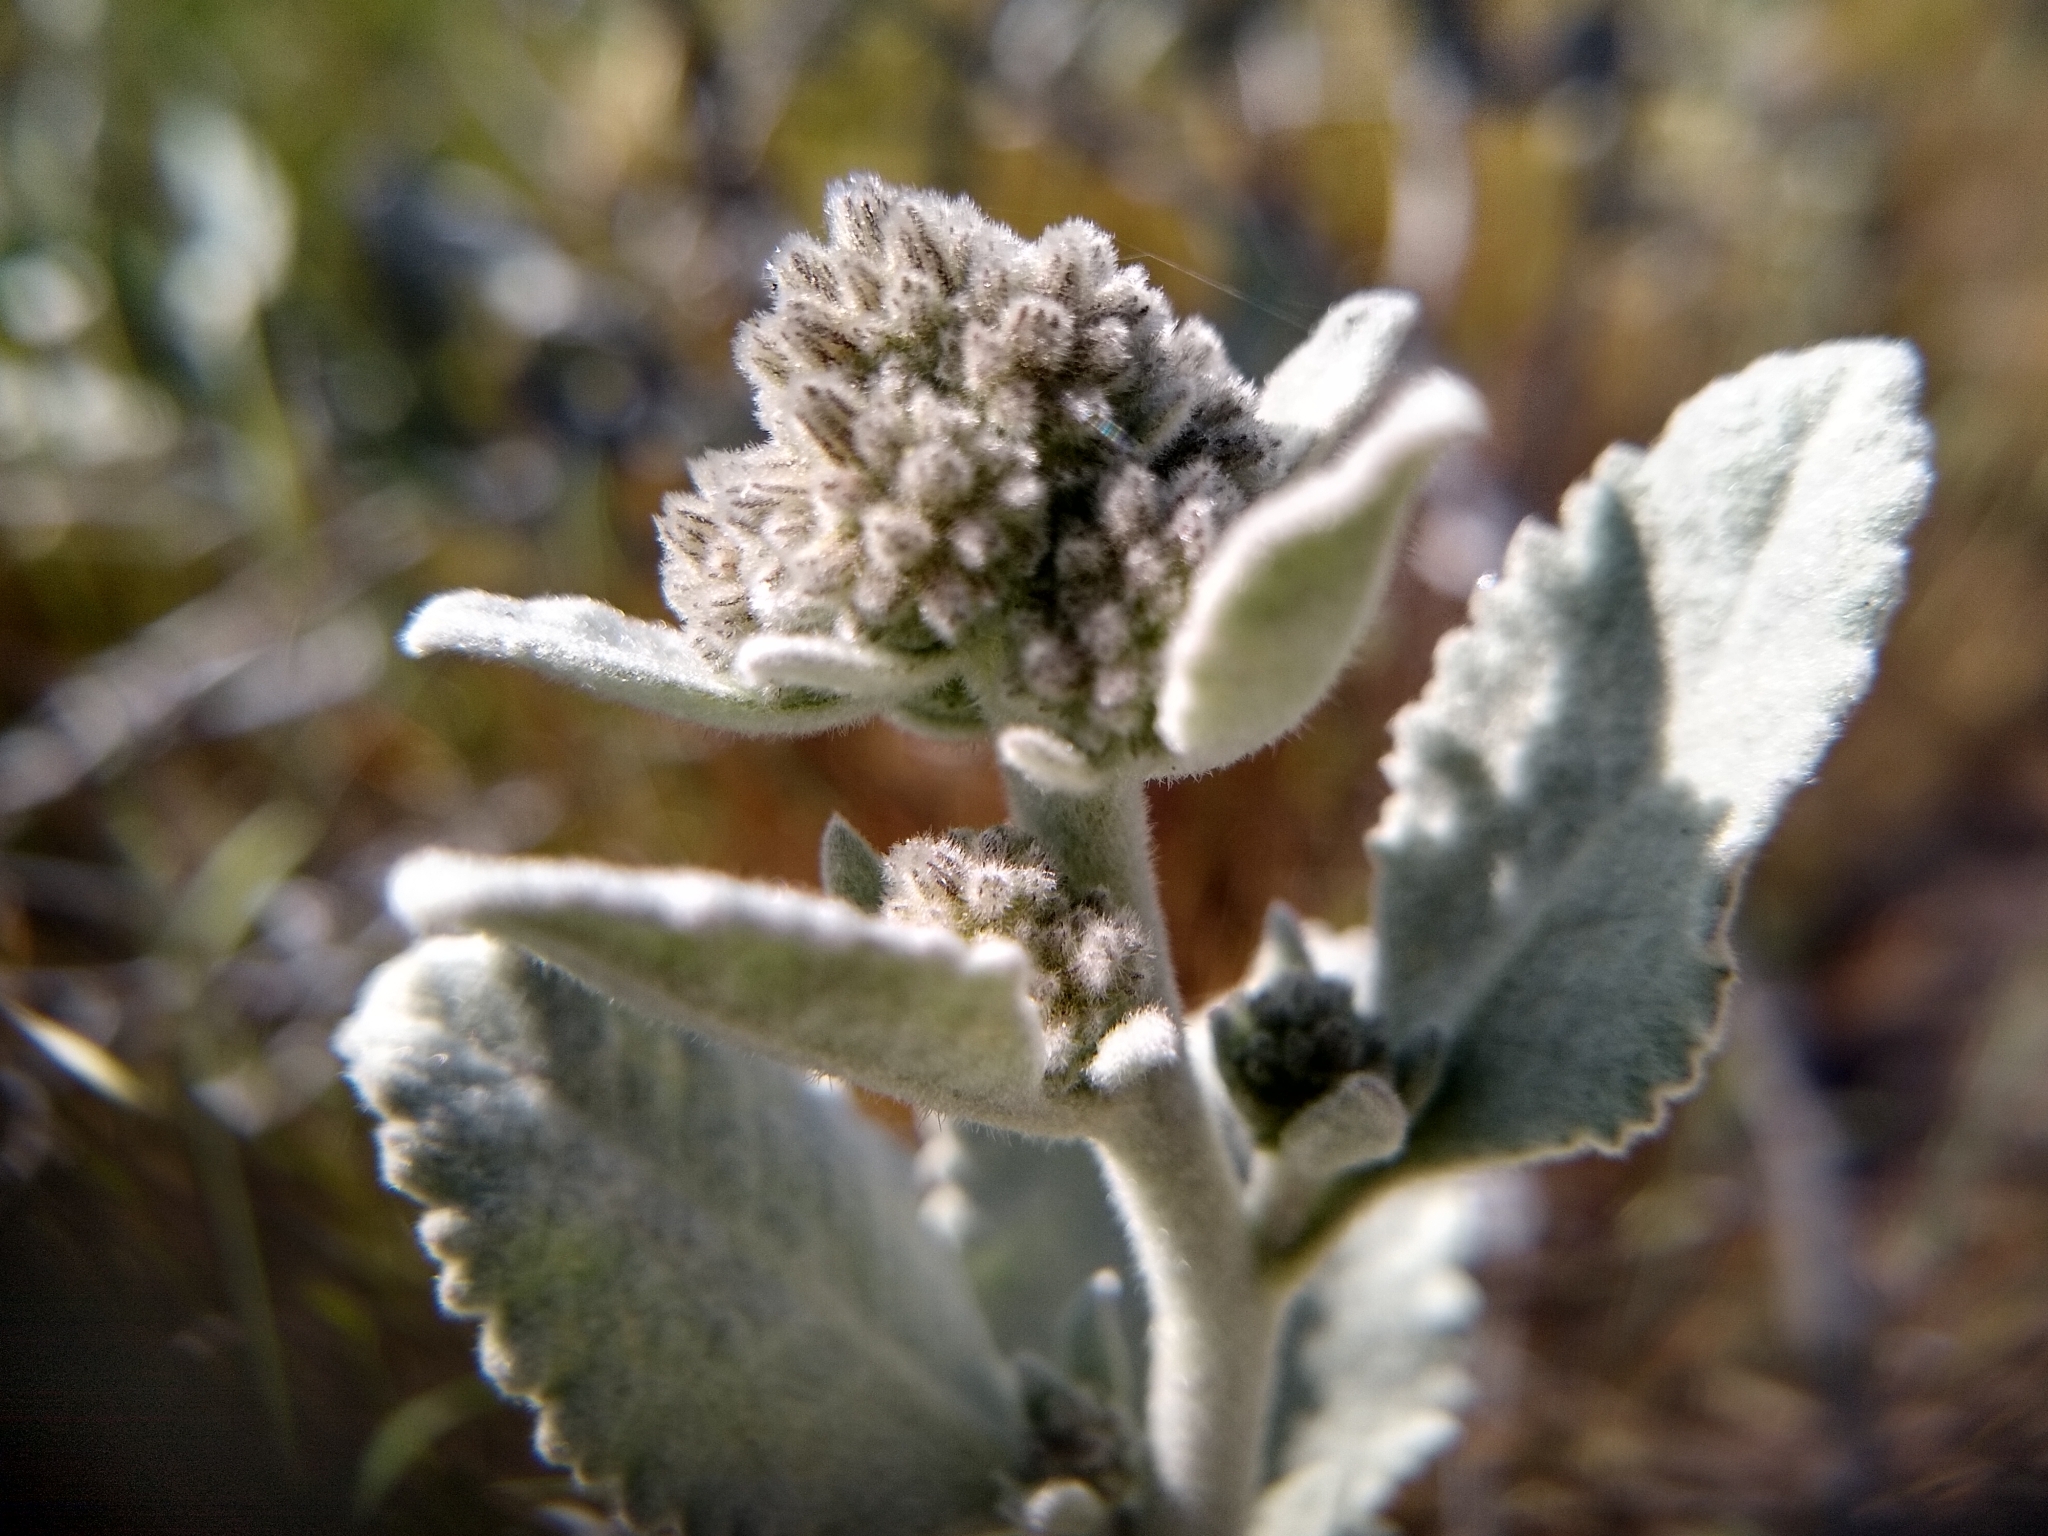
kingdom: Plantae
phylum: Tracheophyta
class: Magnoliopsida
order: Boraginales
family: Namaceae
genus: Eriodictyon
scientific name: Eriodictyon tomentosum
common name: Woolly yerba-santa
